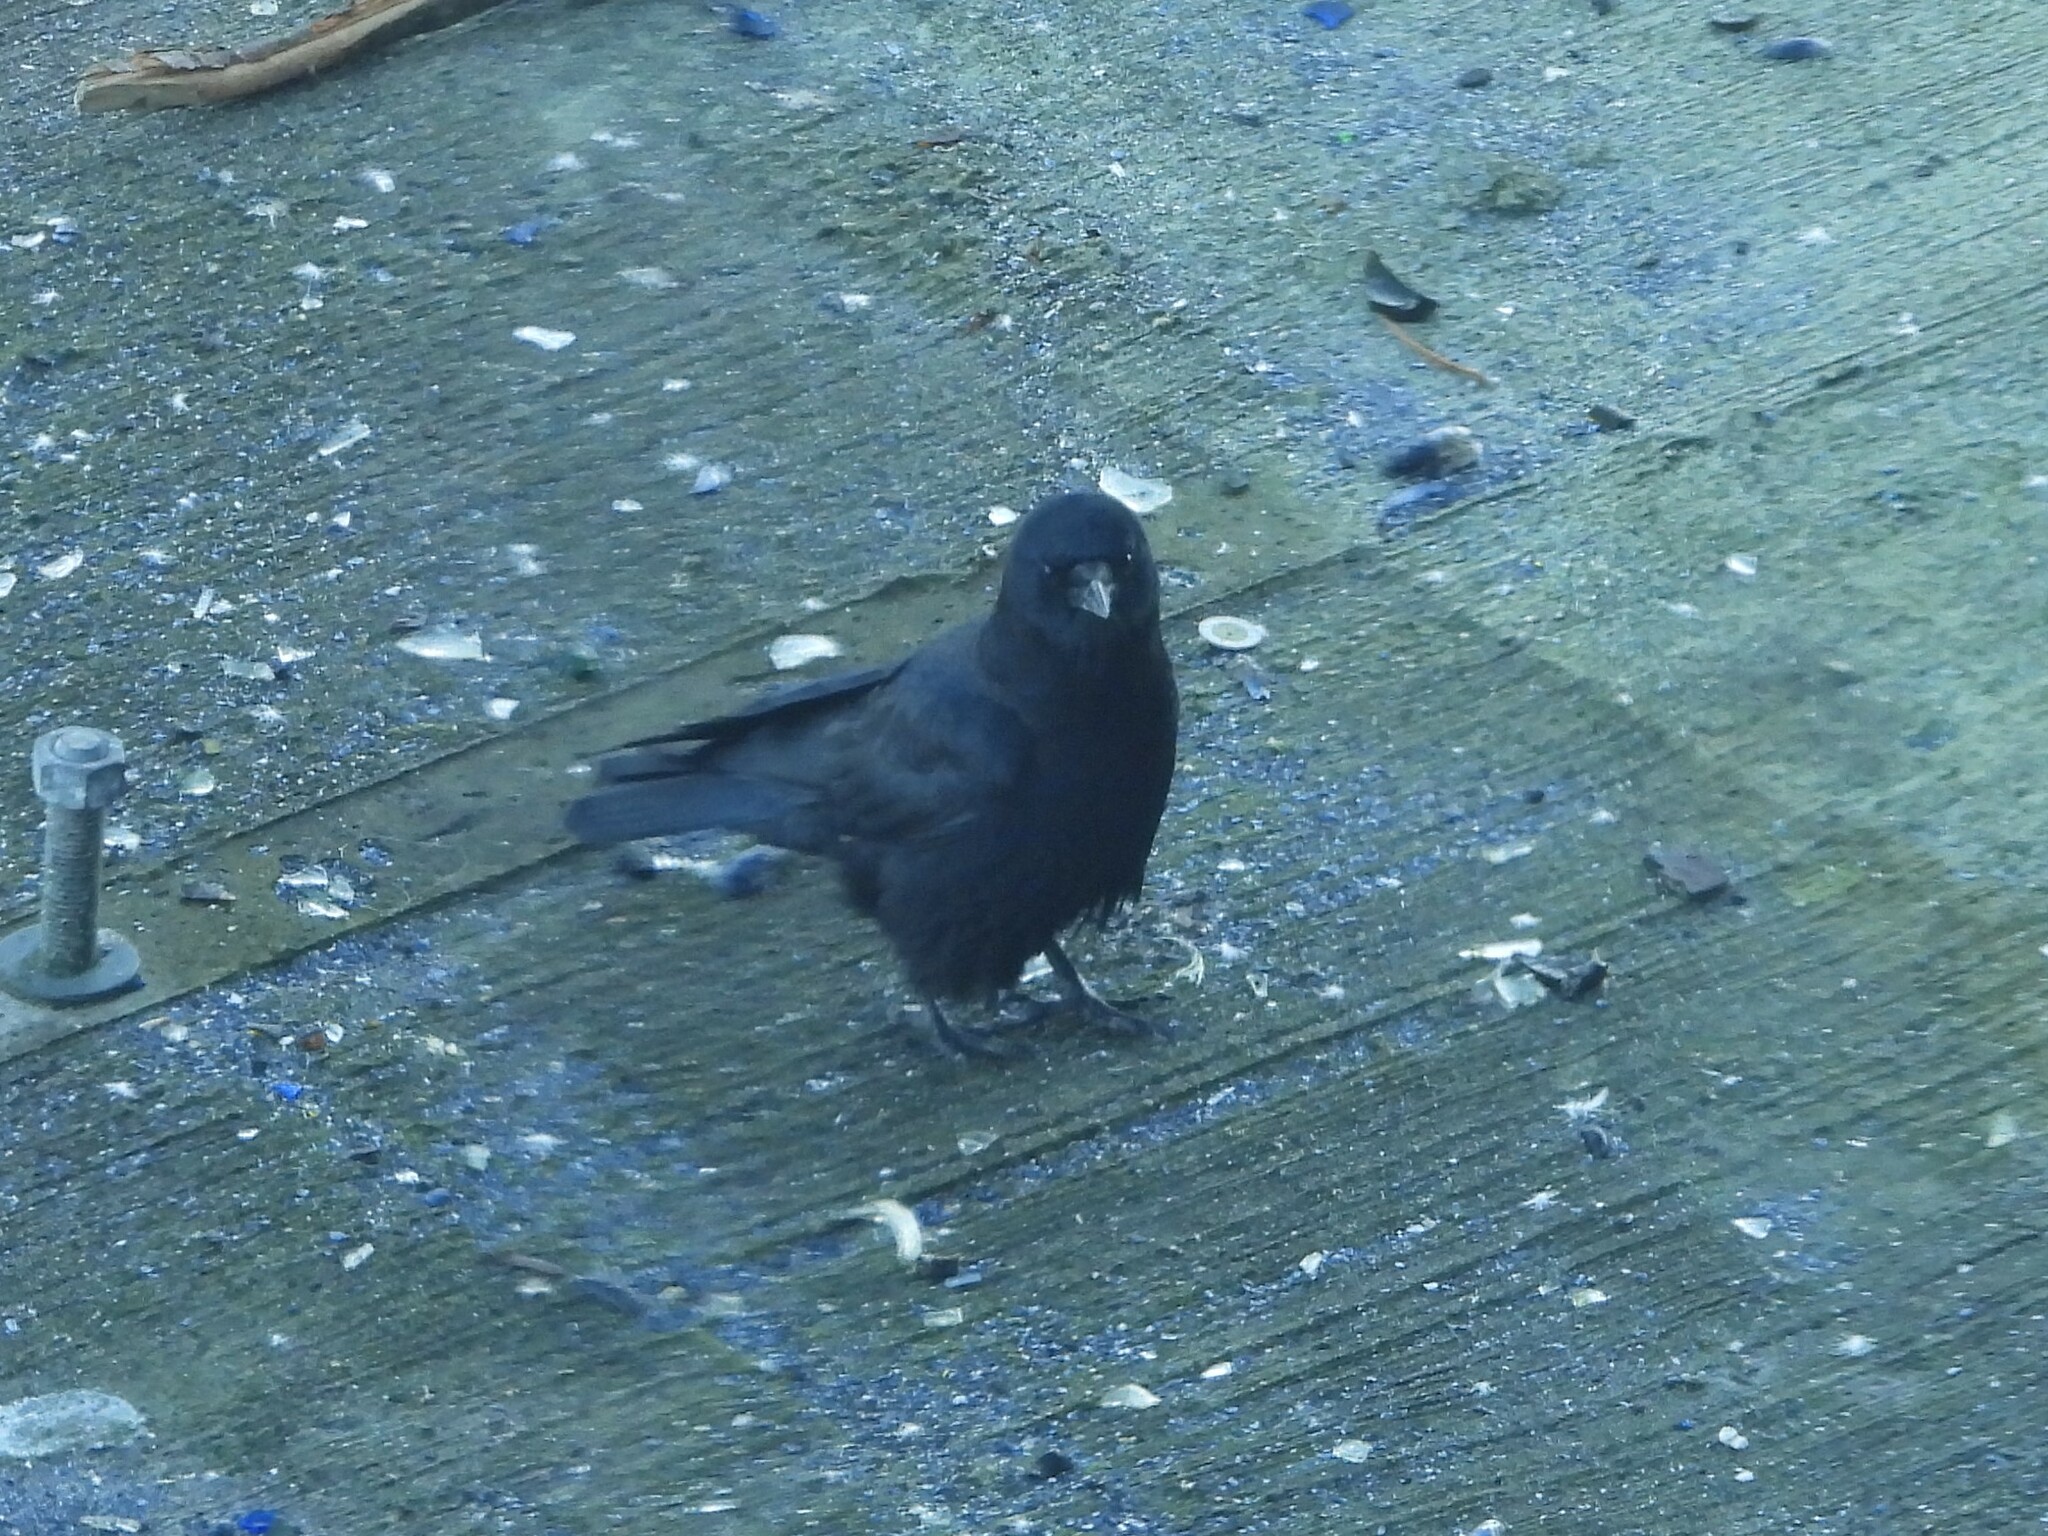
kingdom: Animalia
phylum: Chordata
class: Aves
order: Passeriformes
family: Corvidae
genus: Corvus
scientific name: Corvus brachyrhynchos
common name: American crow
